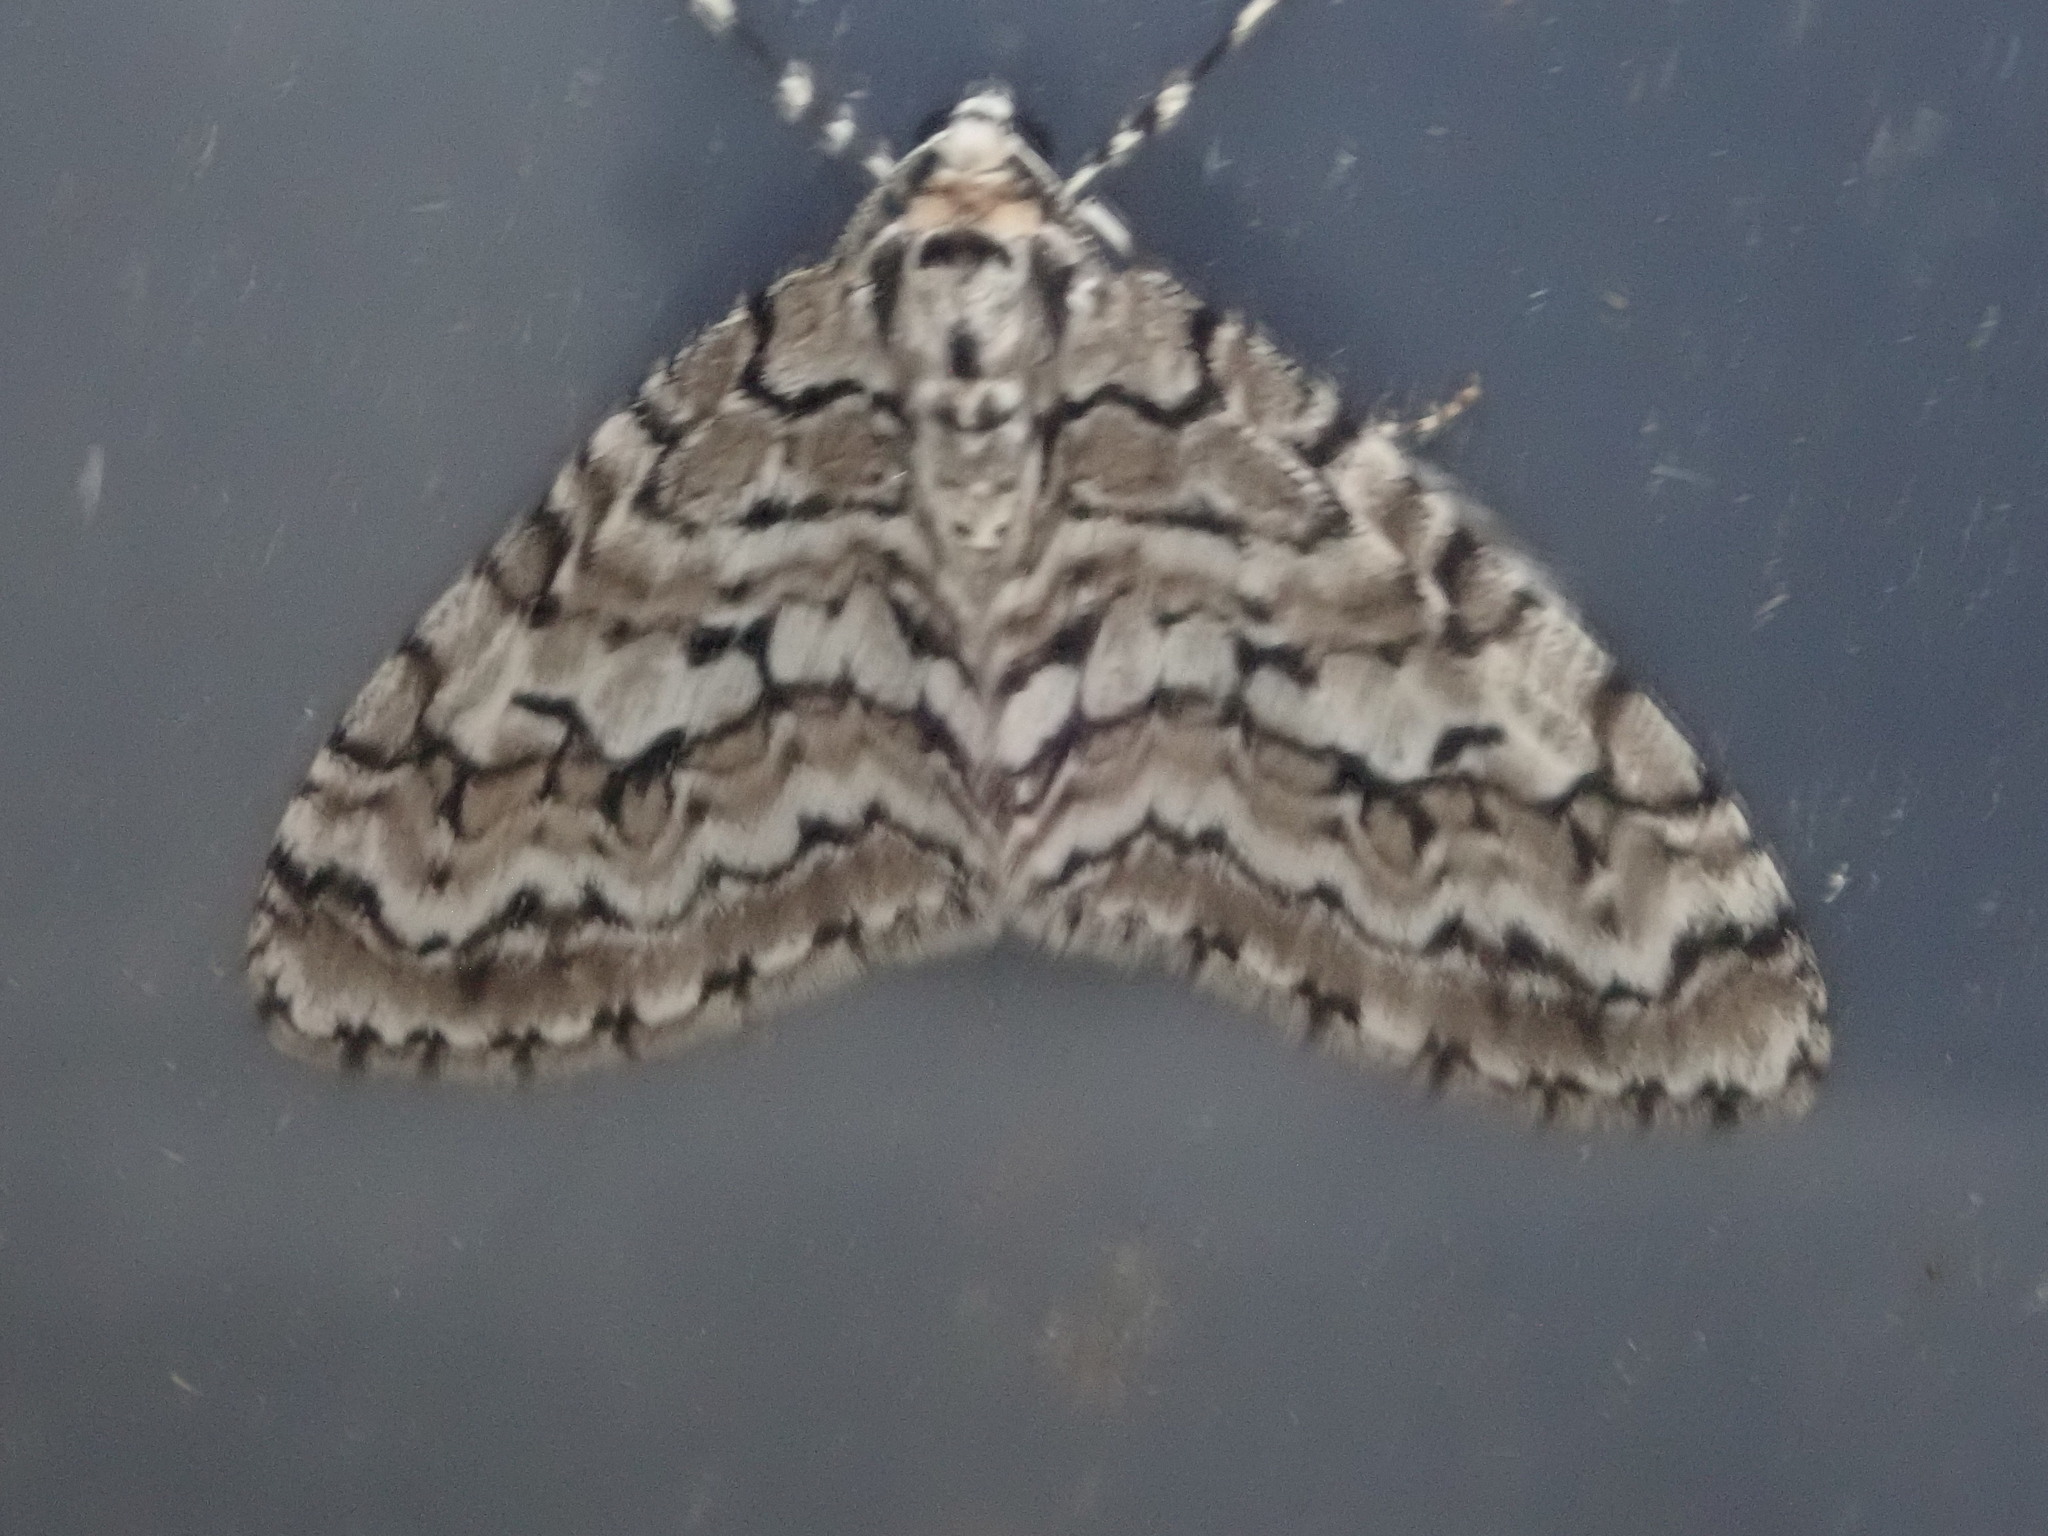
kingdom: Animalia
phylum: Arthropoda
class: Insecta
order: Lepidoptera
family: Geometridae
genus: Cladara
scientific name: Cladara atroliturata
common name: Scribbler
